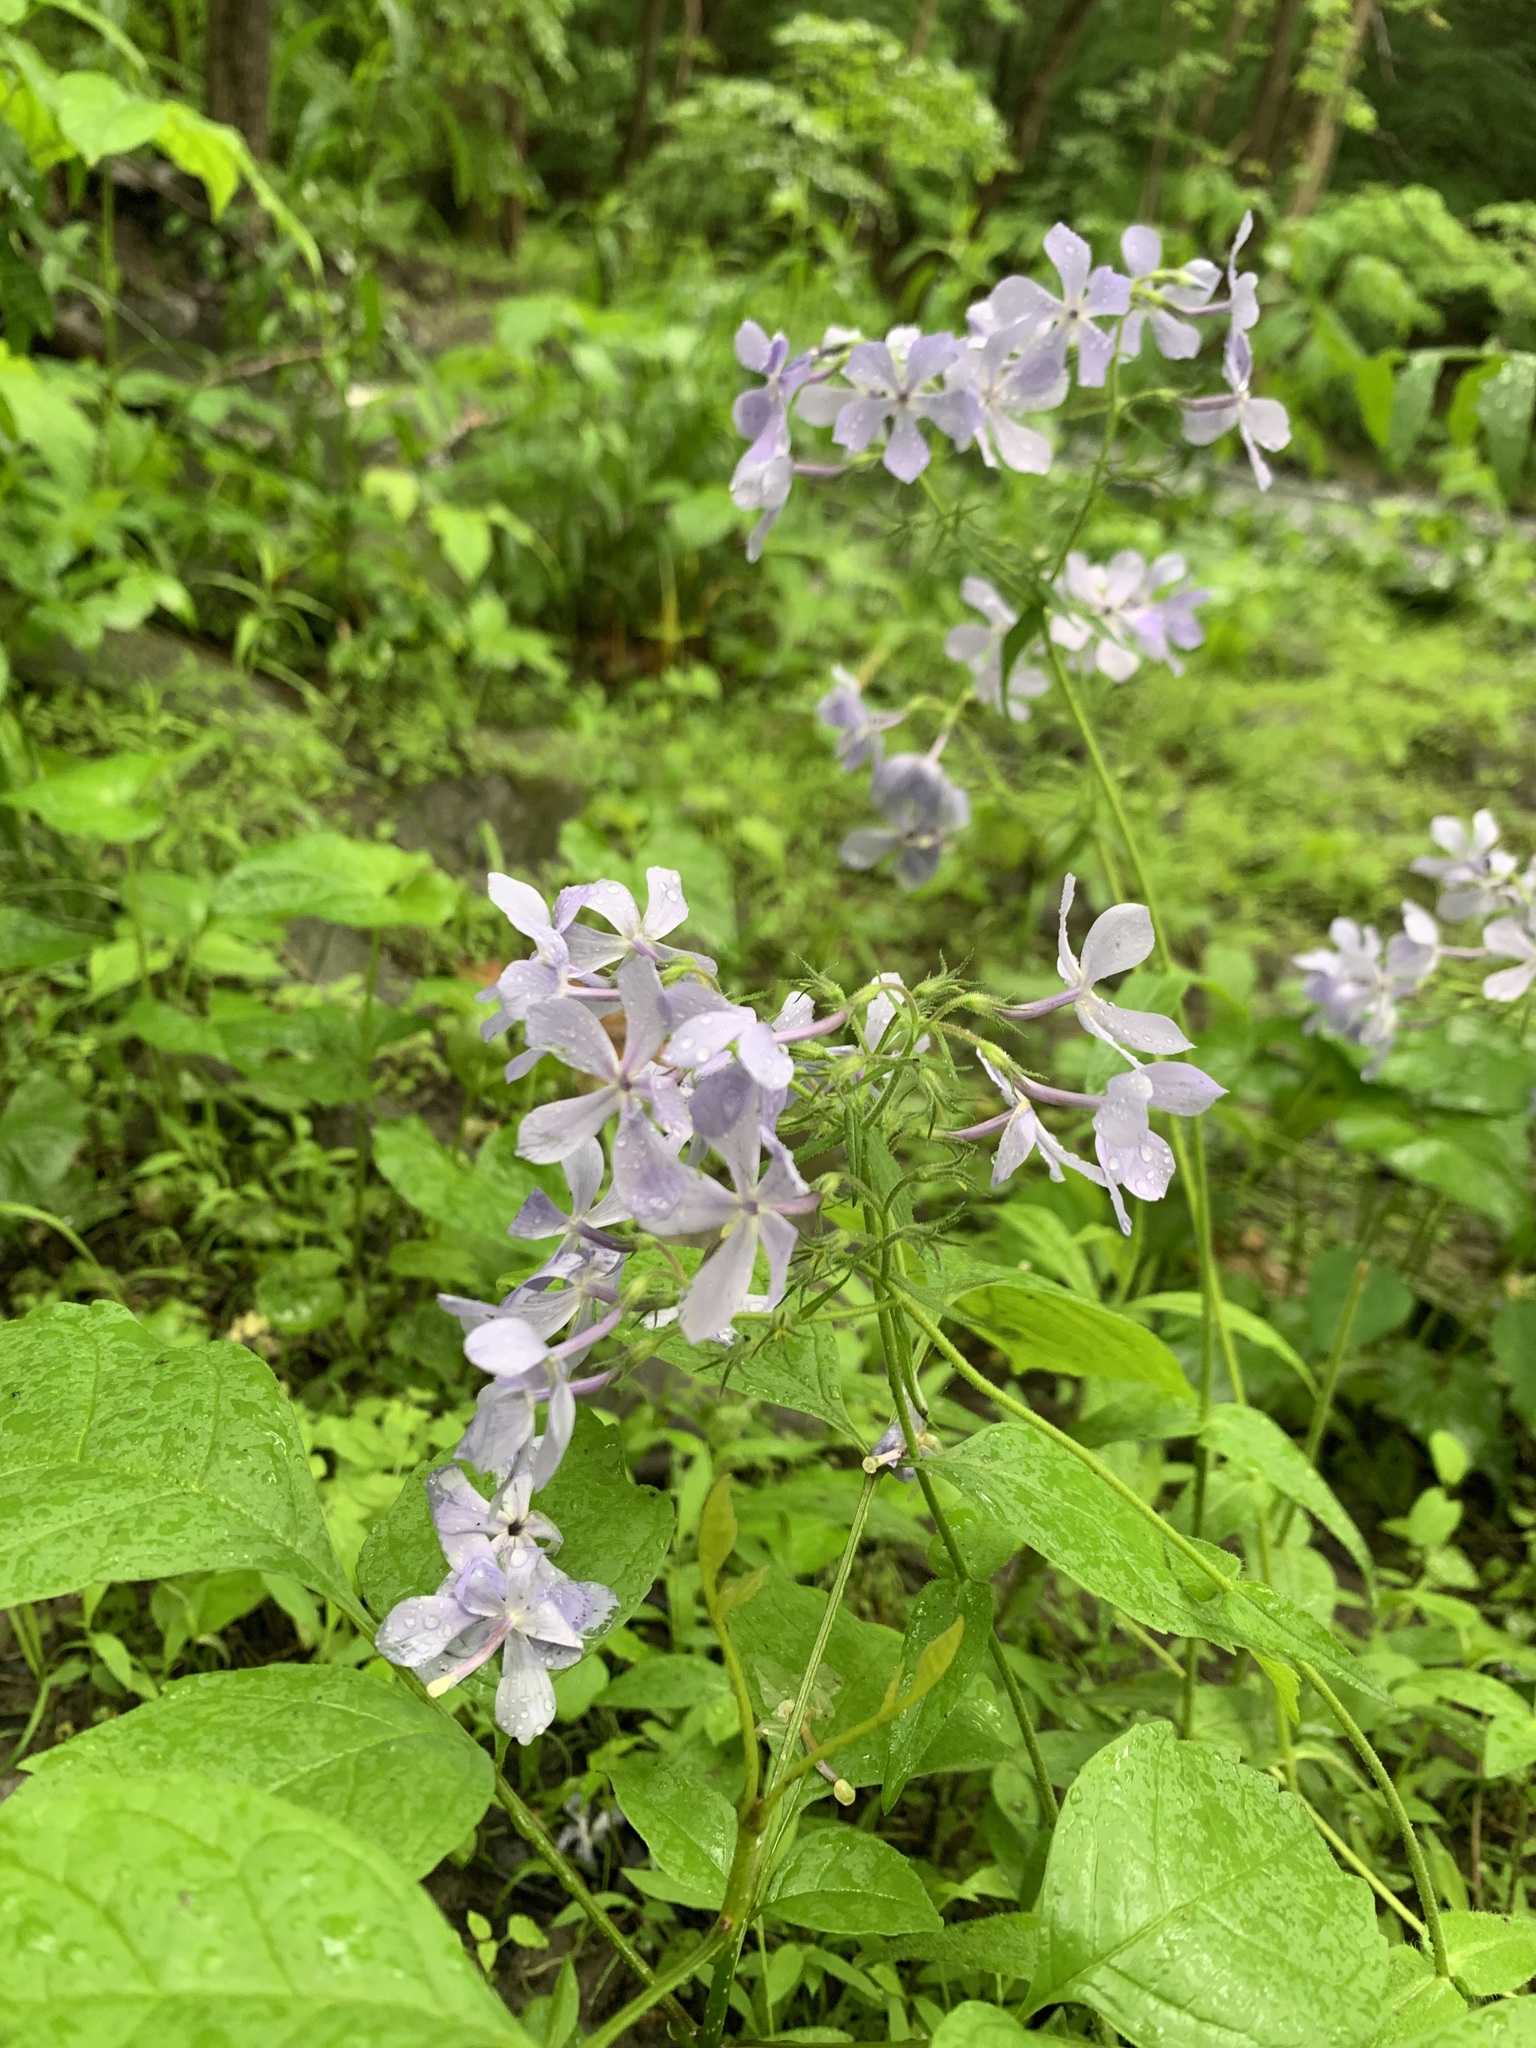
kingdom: Plantae
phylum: Tracheophyta
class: Magnoliopsida
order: Ericales
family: Polemoniaceae
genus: Phlox
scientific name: Phlox divaricata
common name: Blue phlox
